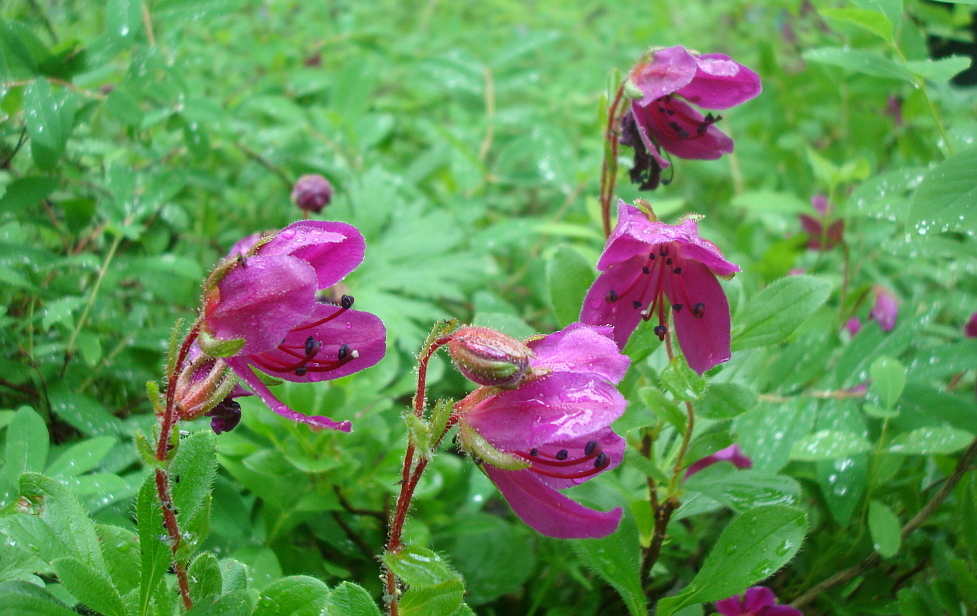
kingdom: Plantae
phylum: Tracheophyta
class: Magnoliopsida
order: Ericales
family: Ericaceae
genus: Rhododendron
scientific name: Rhododendron camtschaticum
